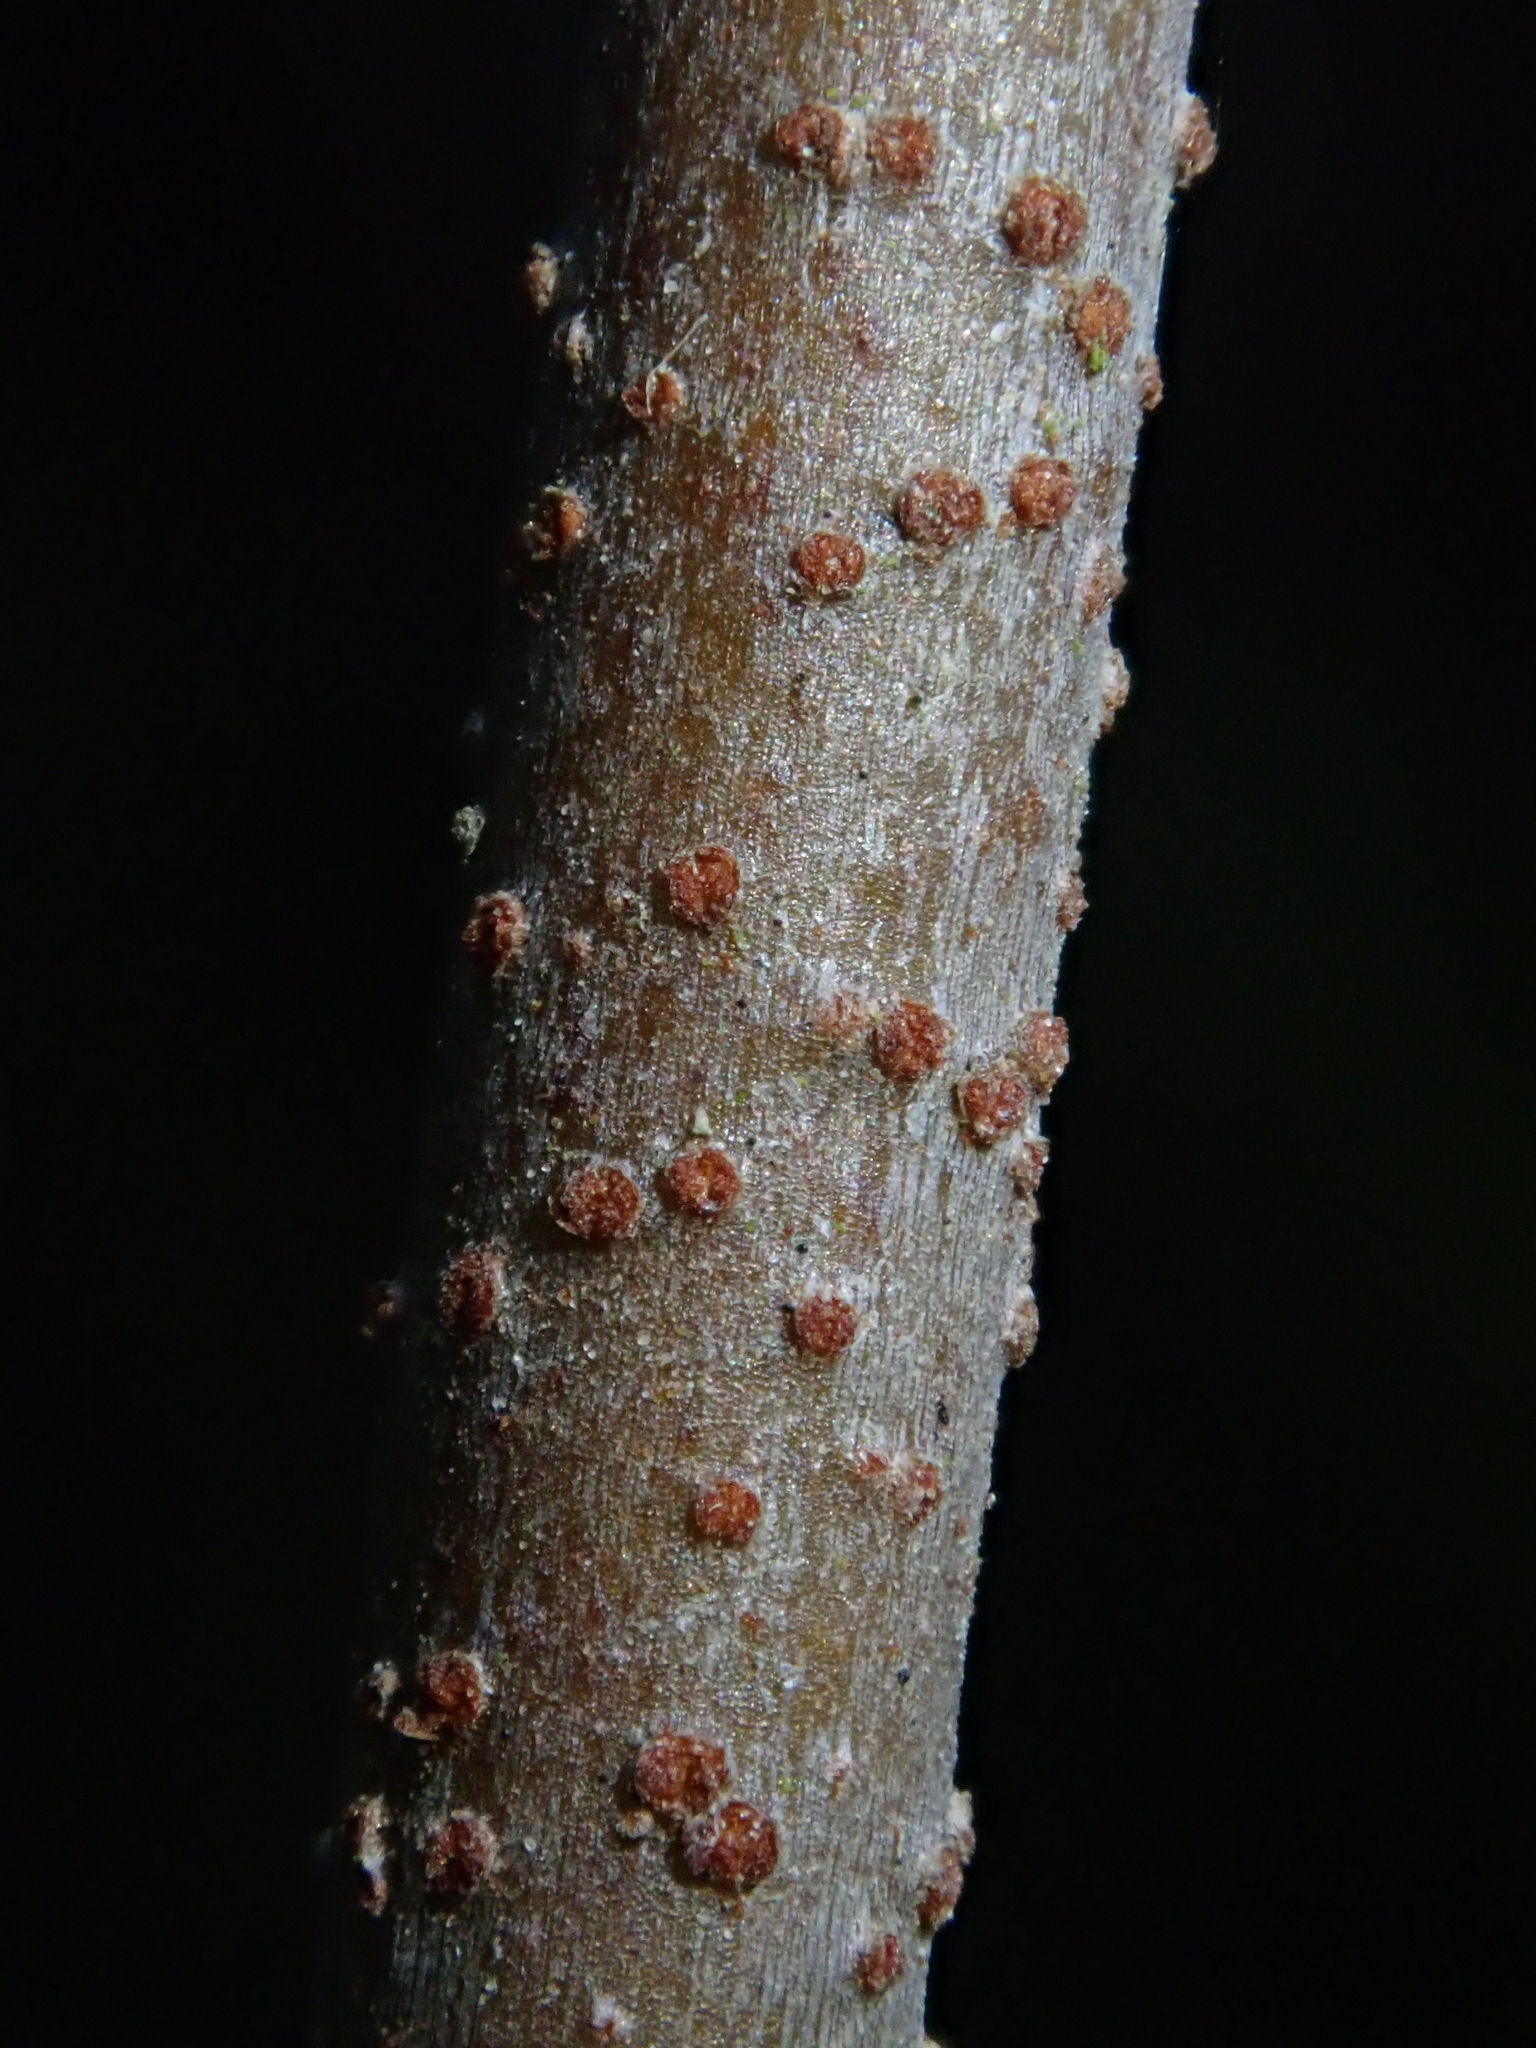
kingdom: Plantae
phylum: Tracheophyta
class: Magnoliopsida
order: Santalales
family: Loranthaceae
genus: Struthanthus
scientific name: Struthanthus acuminatus
